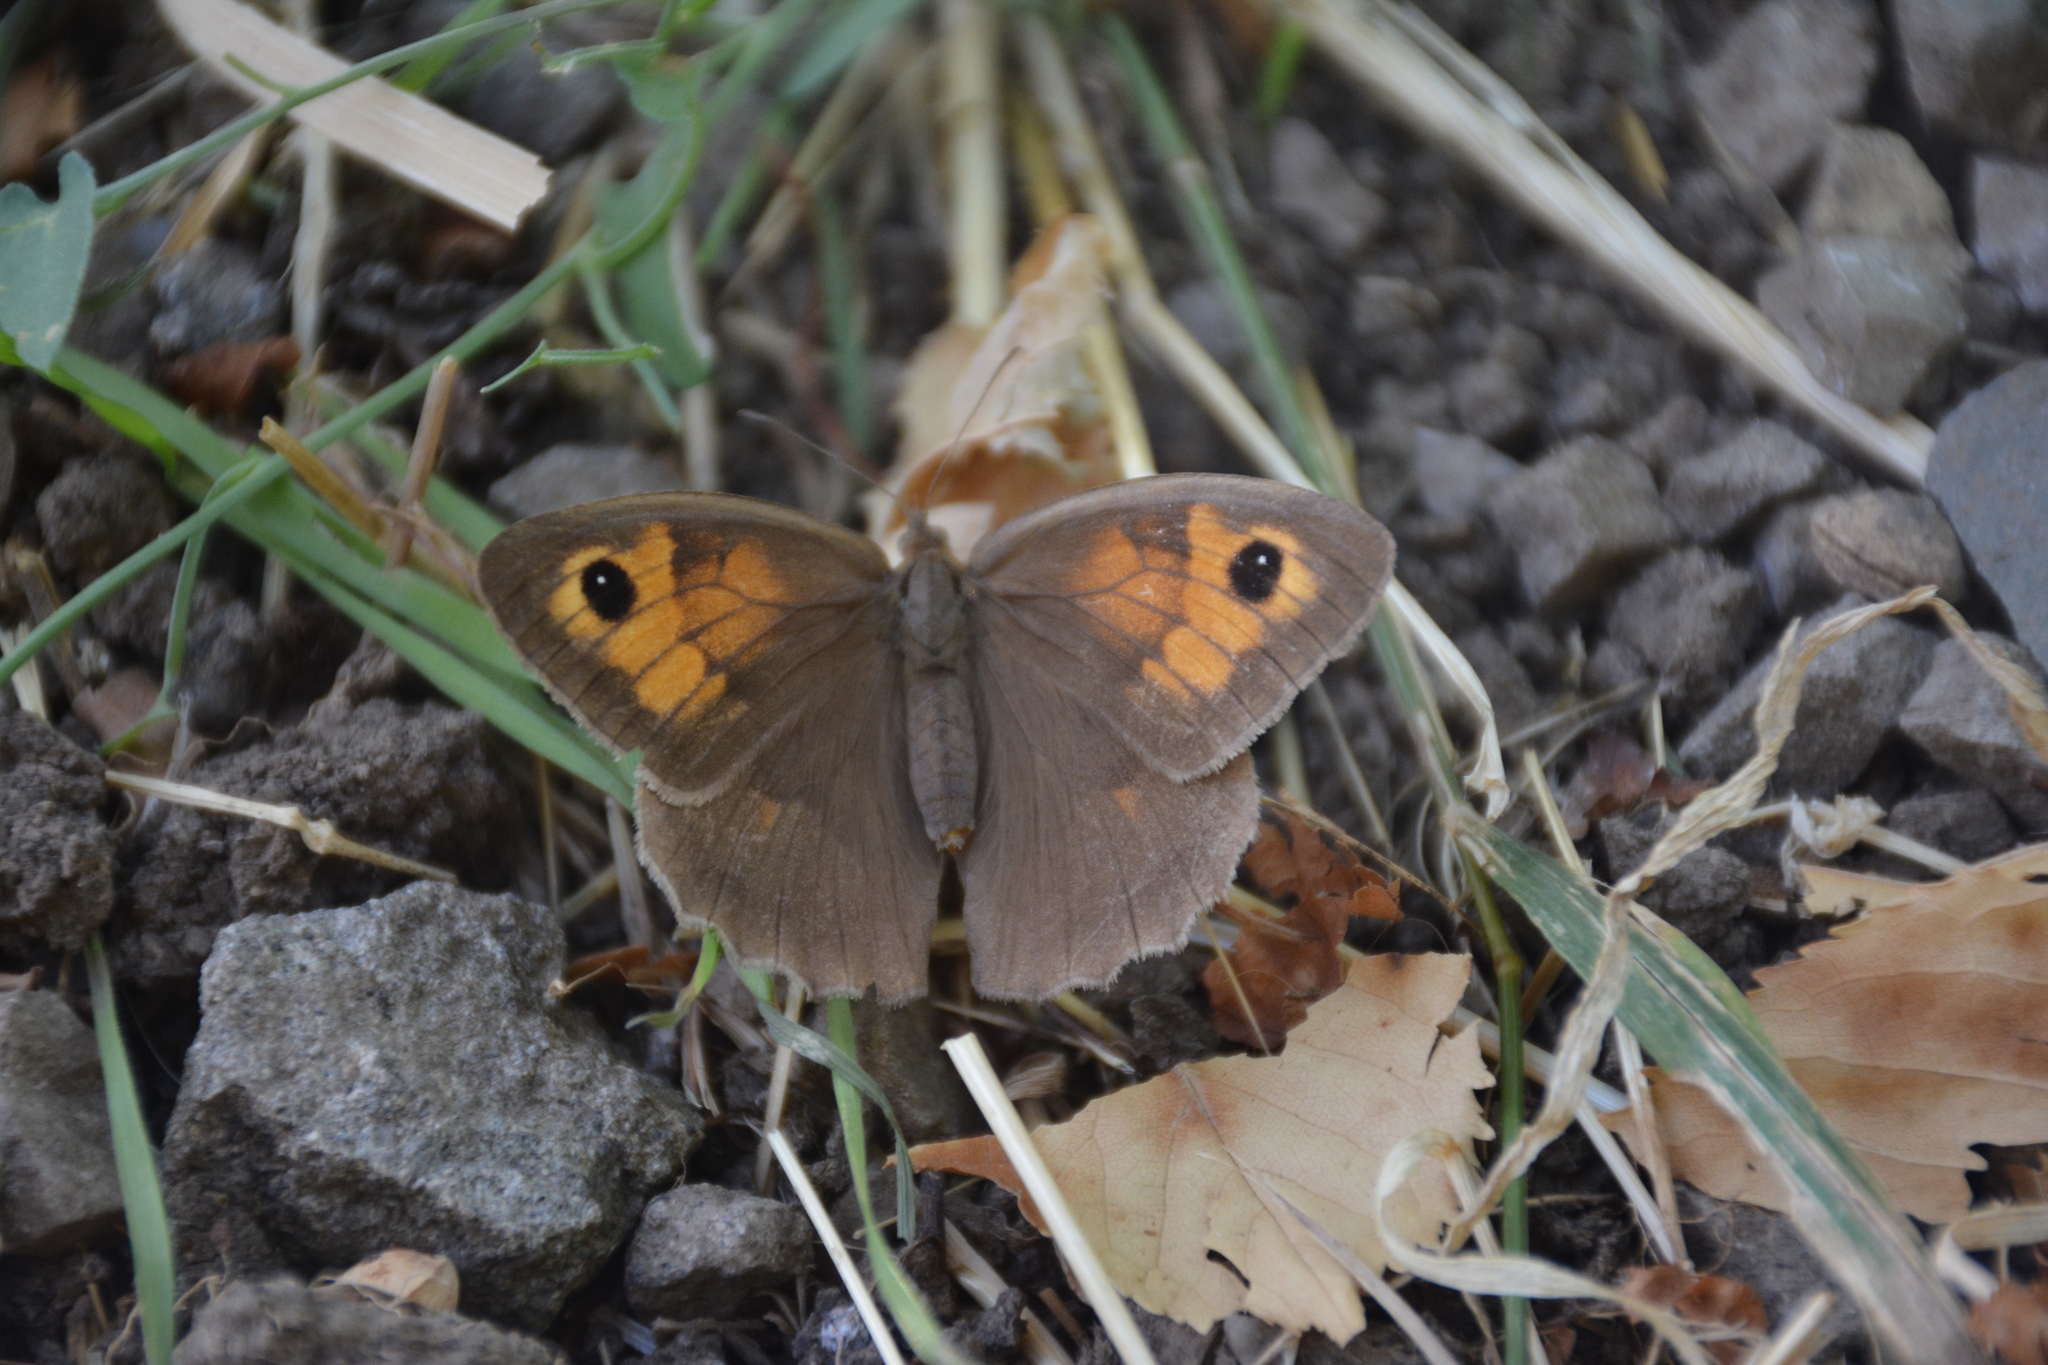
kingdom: Animalia
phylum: Arthropoda
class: Insecta
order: Lepidoptera
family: Nymphalidae
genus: Maniola
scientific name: Maniola jurtina
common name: Meadow brown
